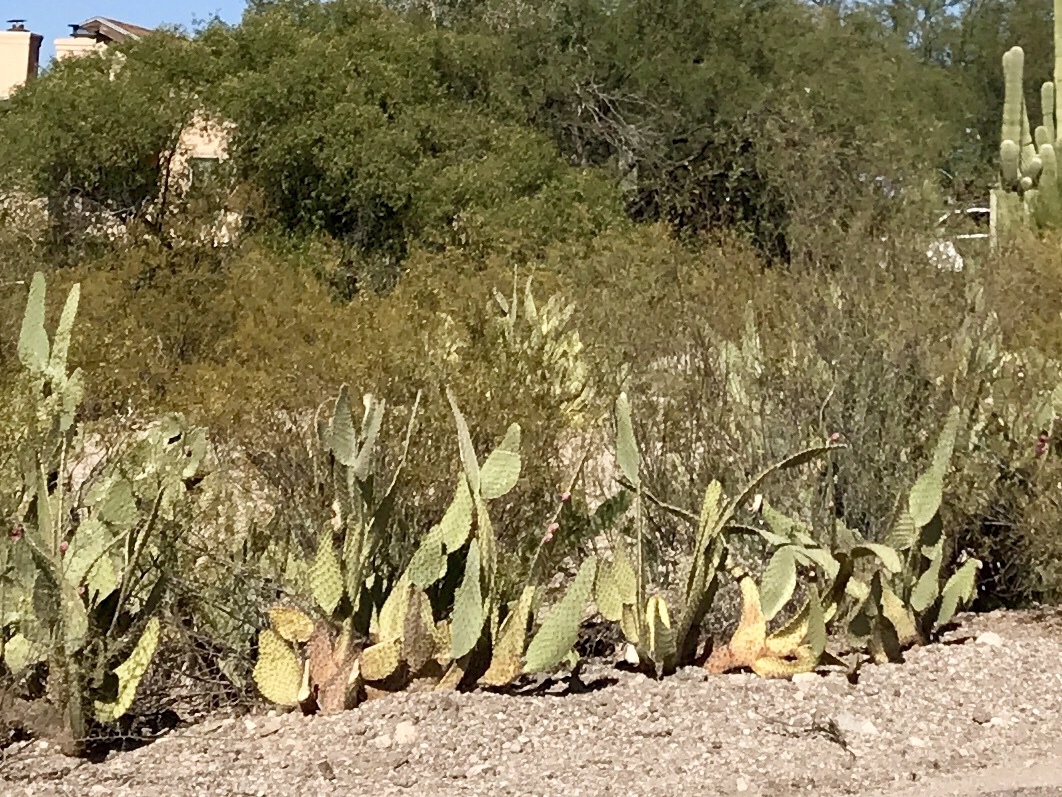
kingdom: Plantae
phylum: Tracheophyta
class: Magnoliopsida
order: Caryophyllales
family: Cactaceae
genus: Opuntia
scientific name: Opuntia engelmannii
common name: Cactus-apple
